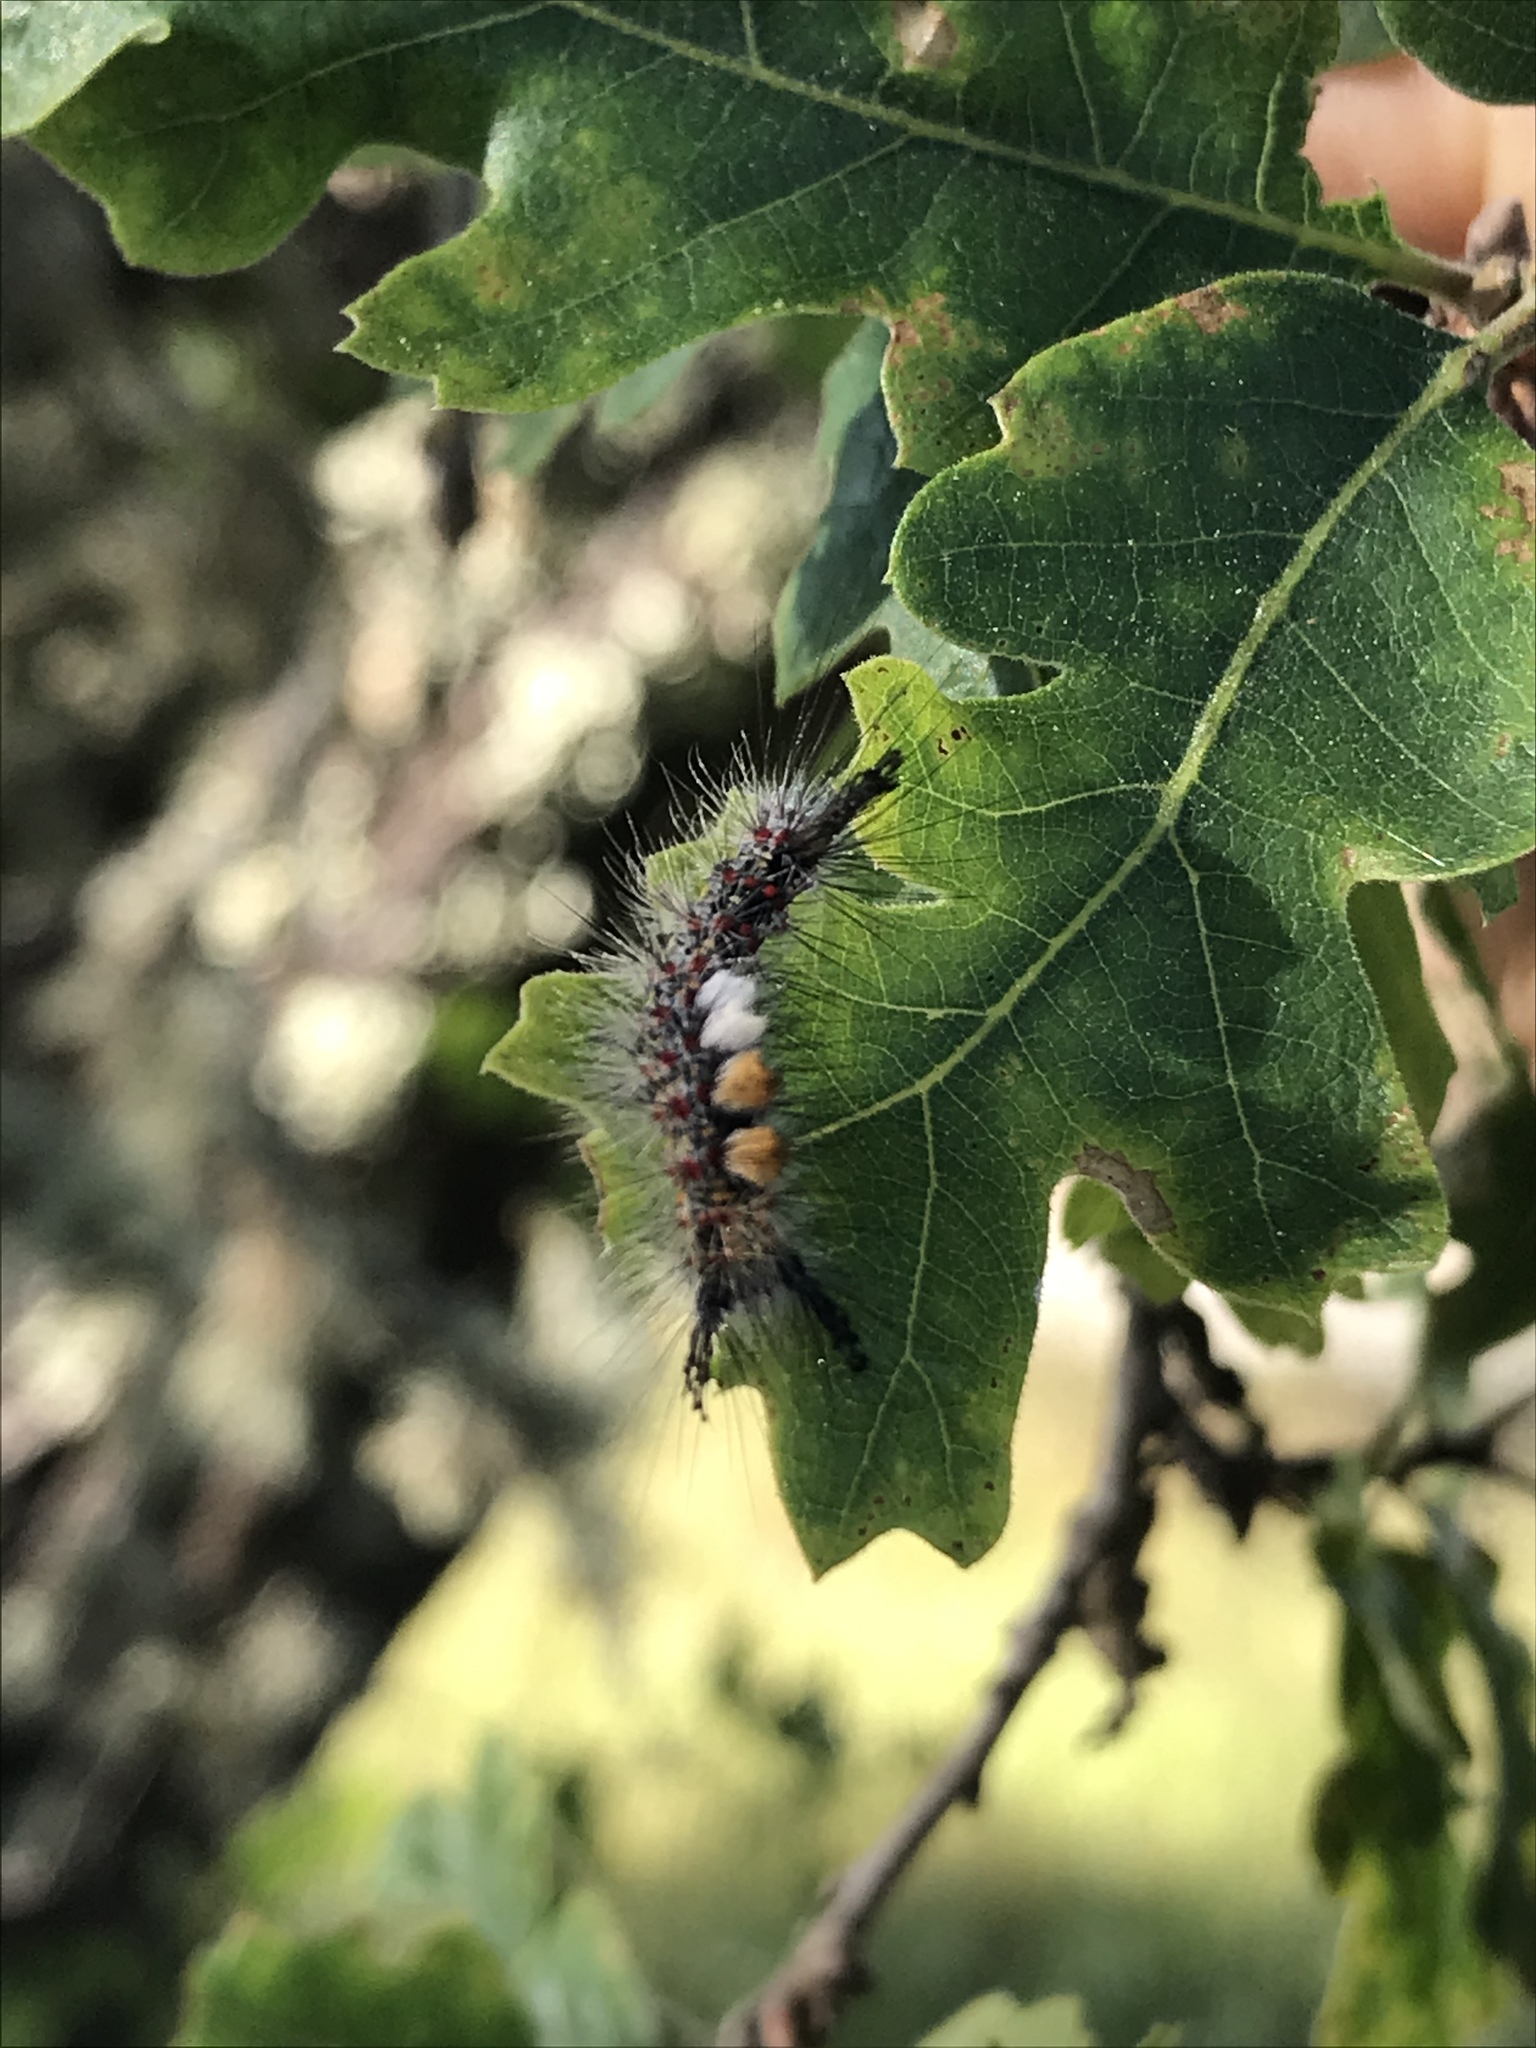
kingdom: Animalia
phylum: Arthropoda
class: Insecta
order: Lepidoptera
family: Erebidae
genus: Orgyia
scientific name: Orgyia vetusta
